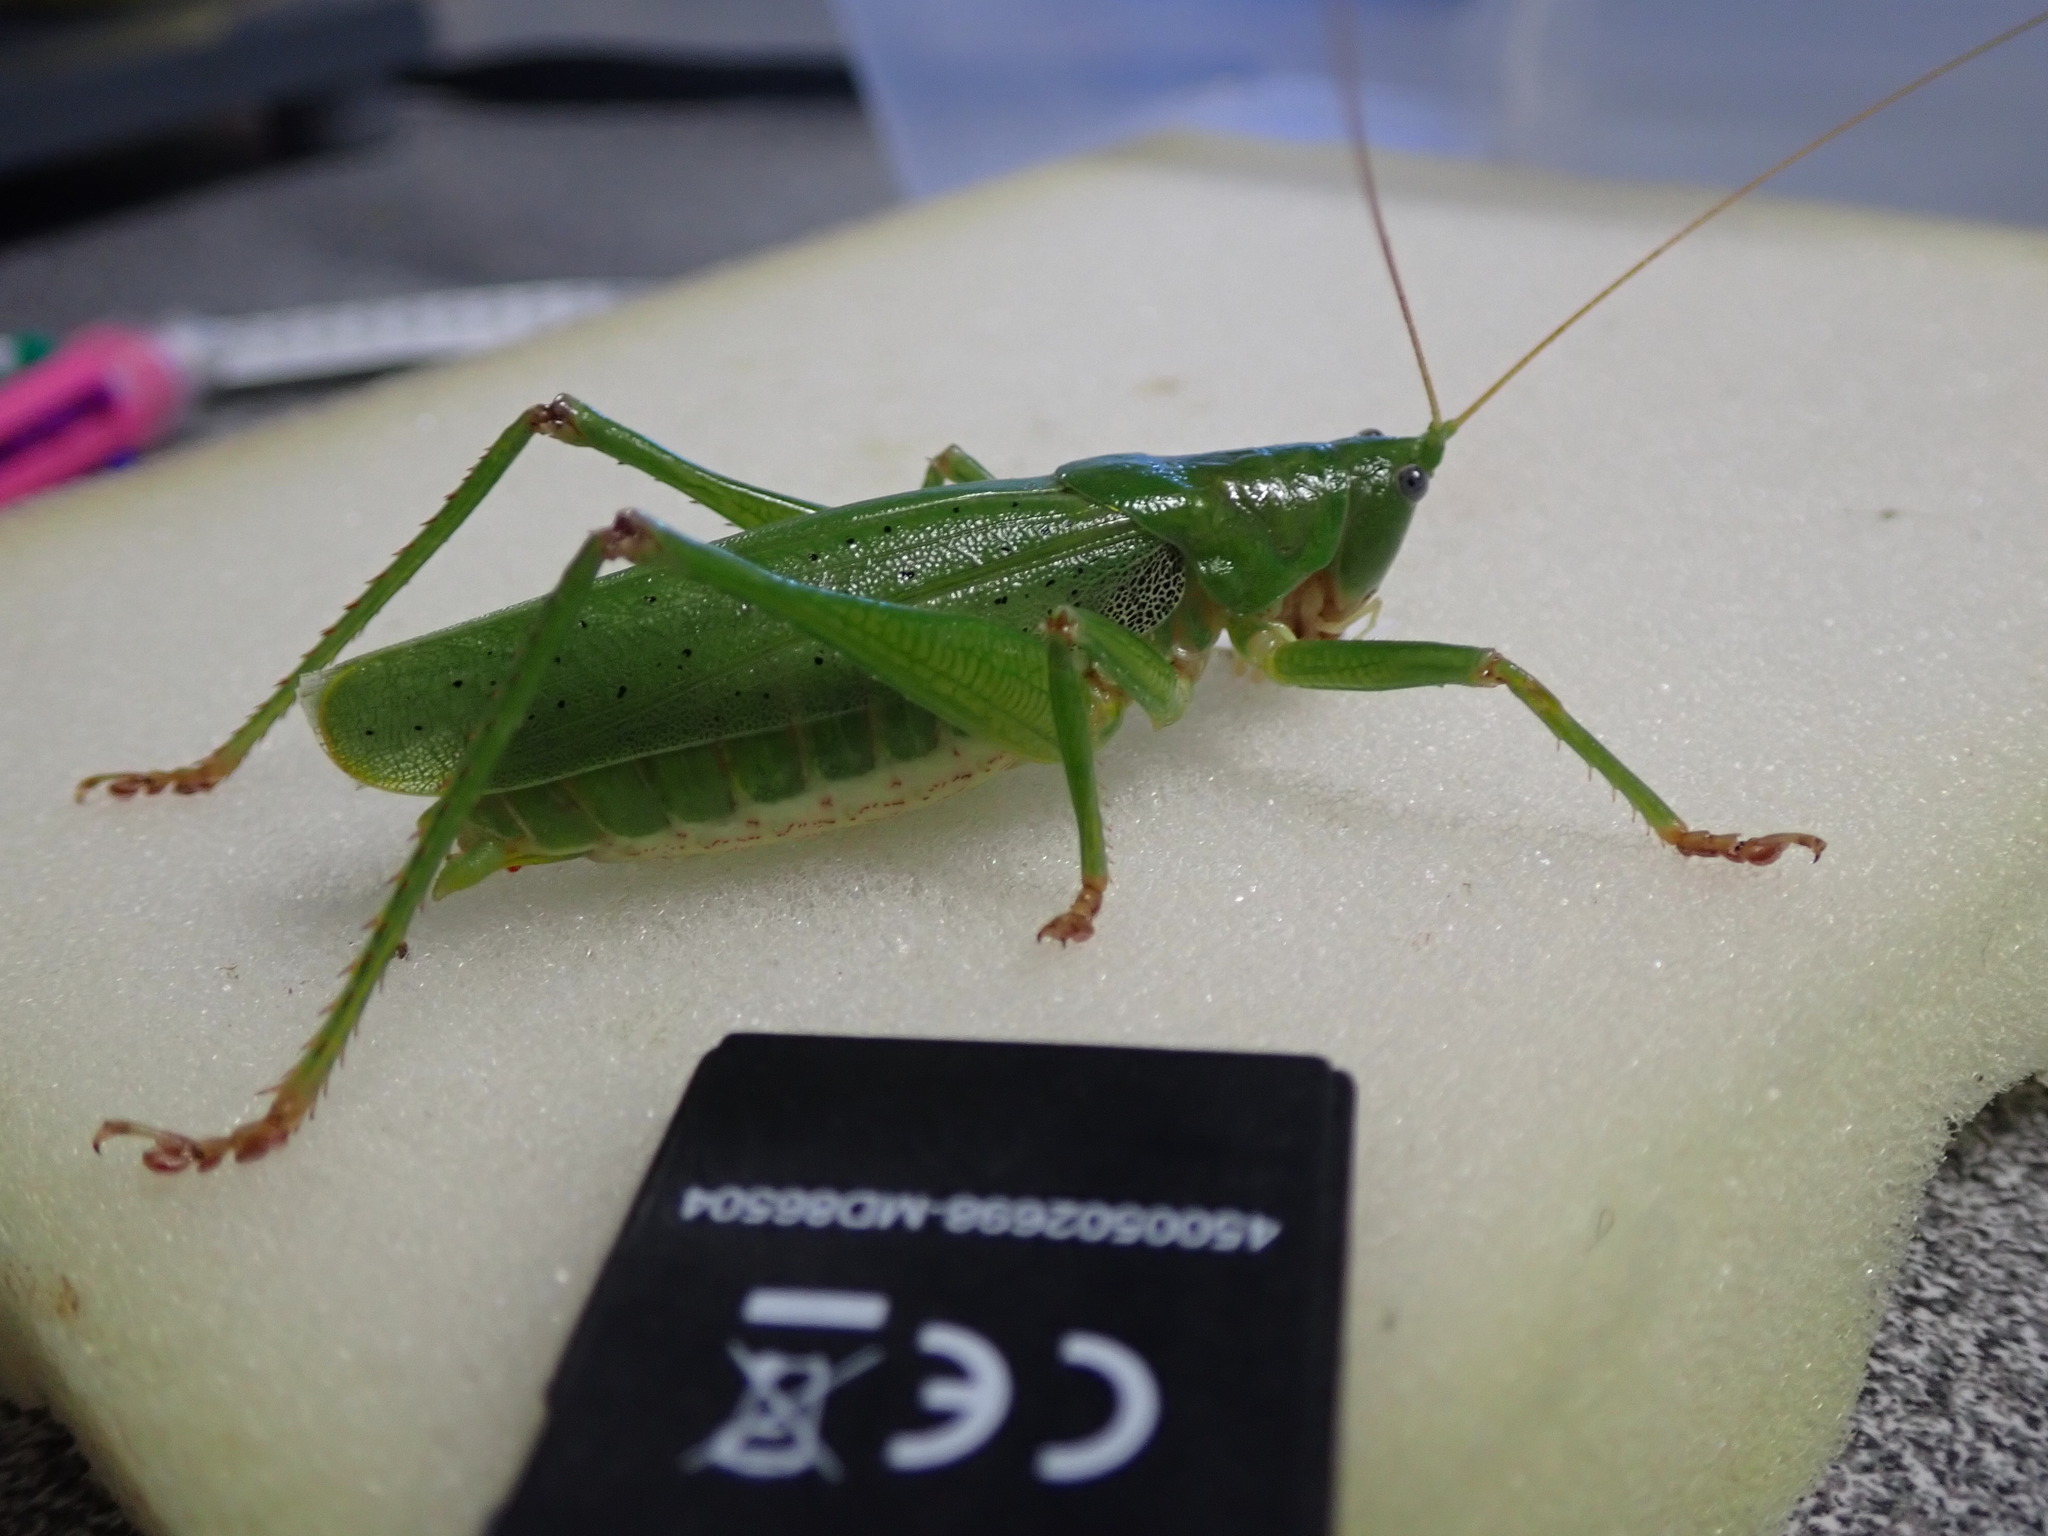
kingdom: Animalia
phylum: Arthropoda
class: Insecta
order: Orthoptera
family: Tettigoniidae
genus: Austrosalomona
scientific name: Austrosalomona destructor
